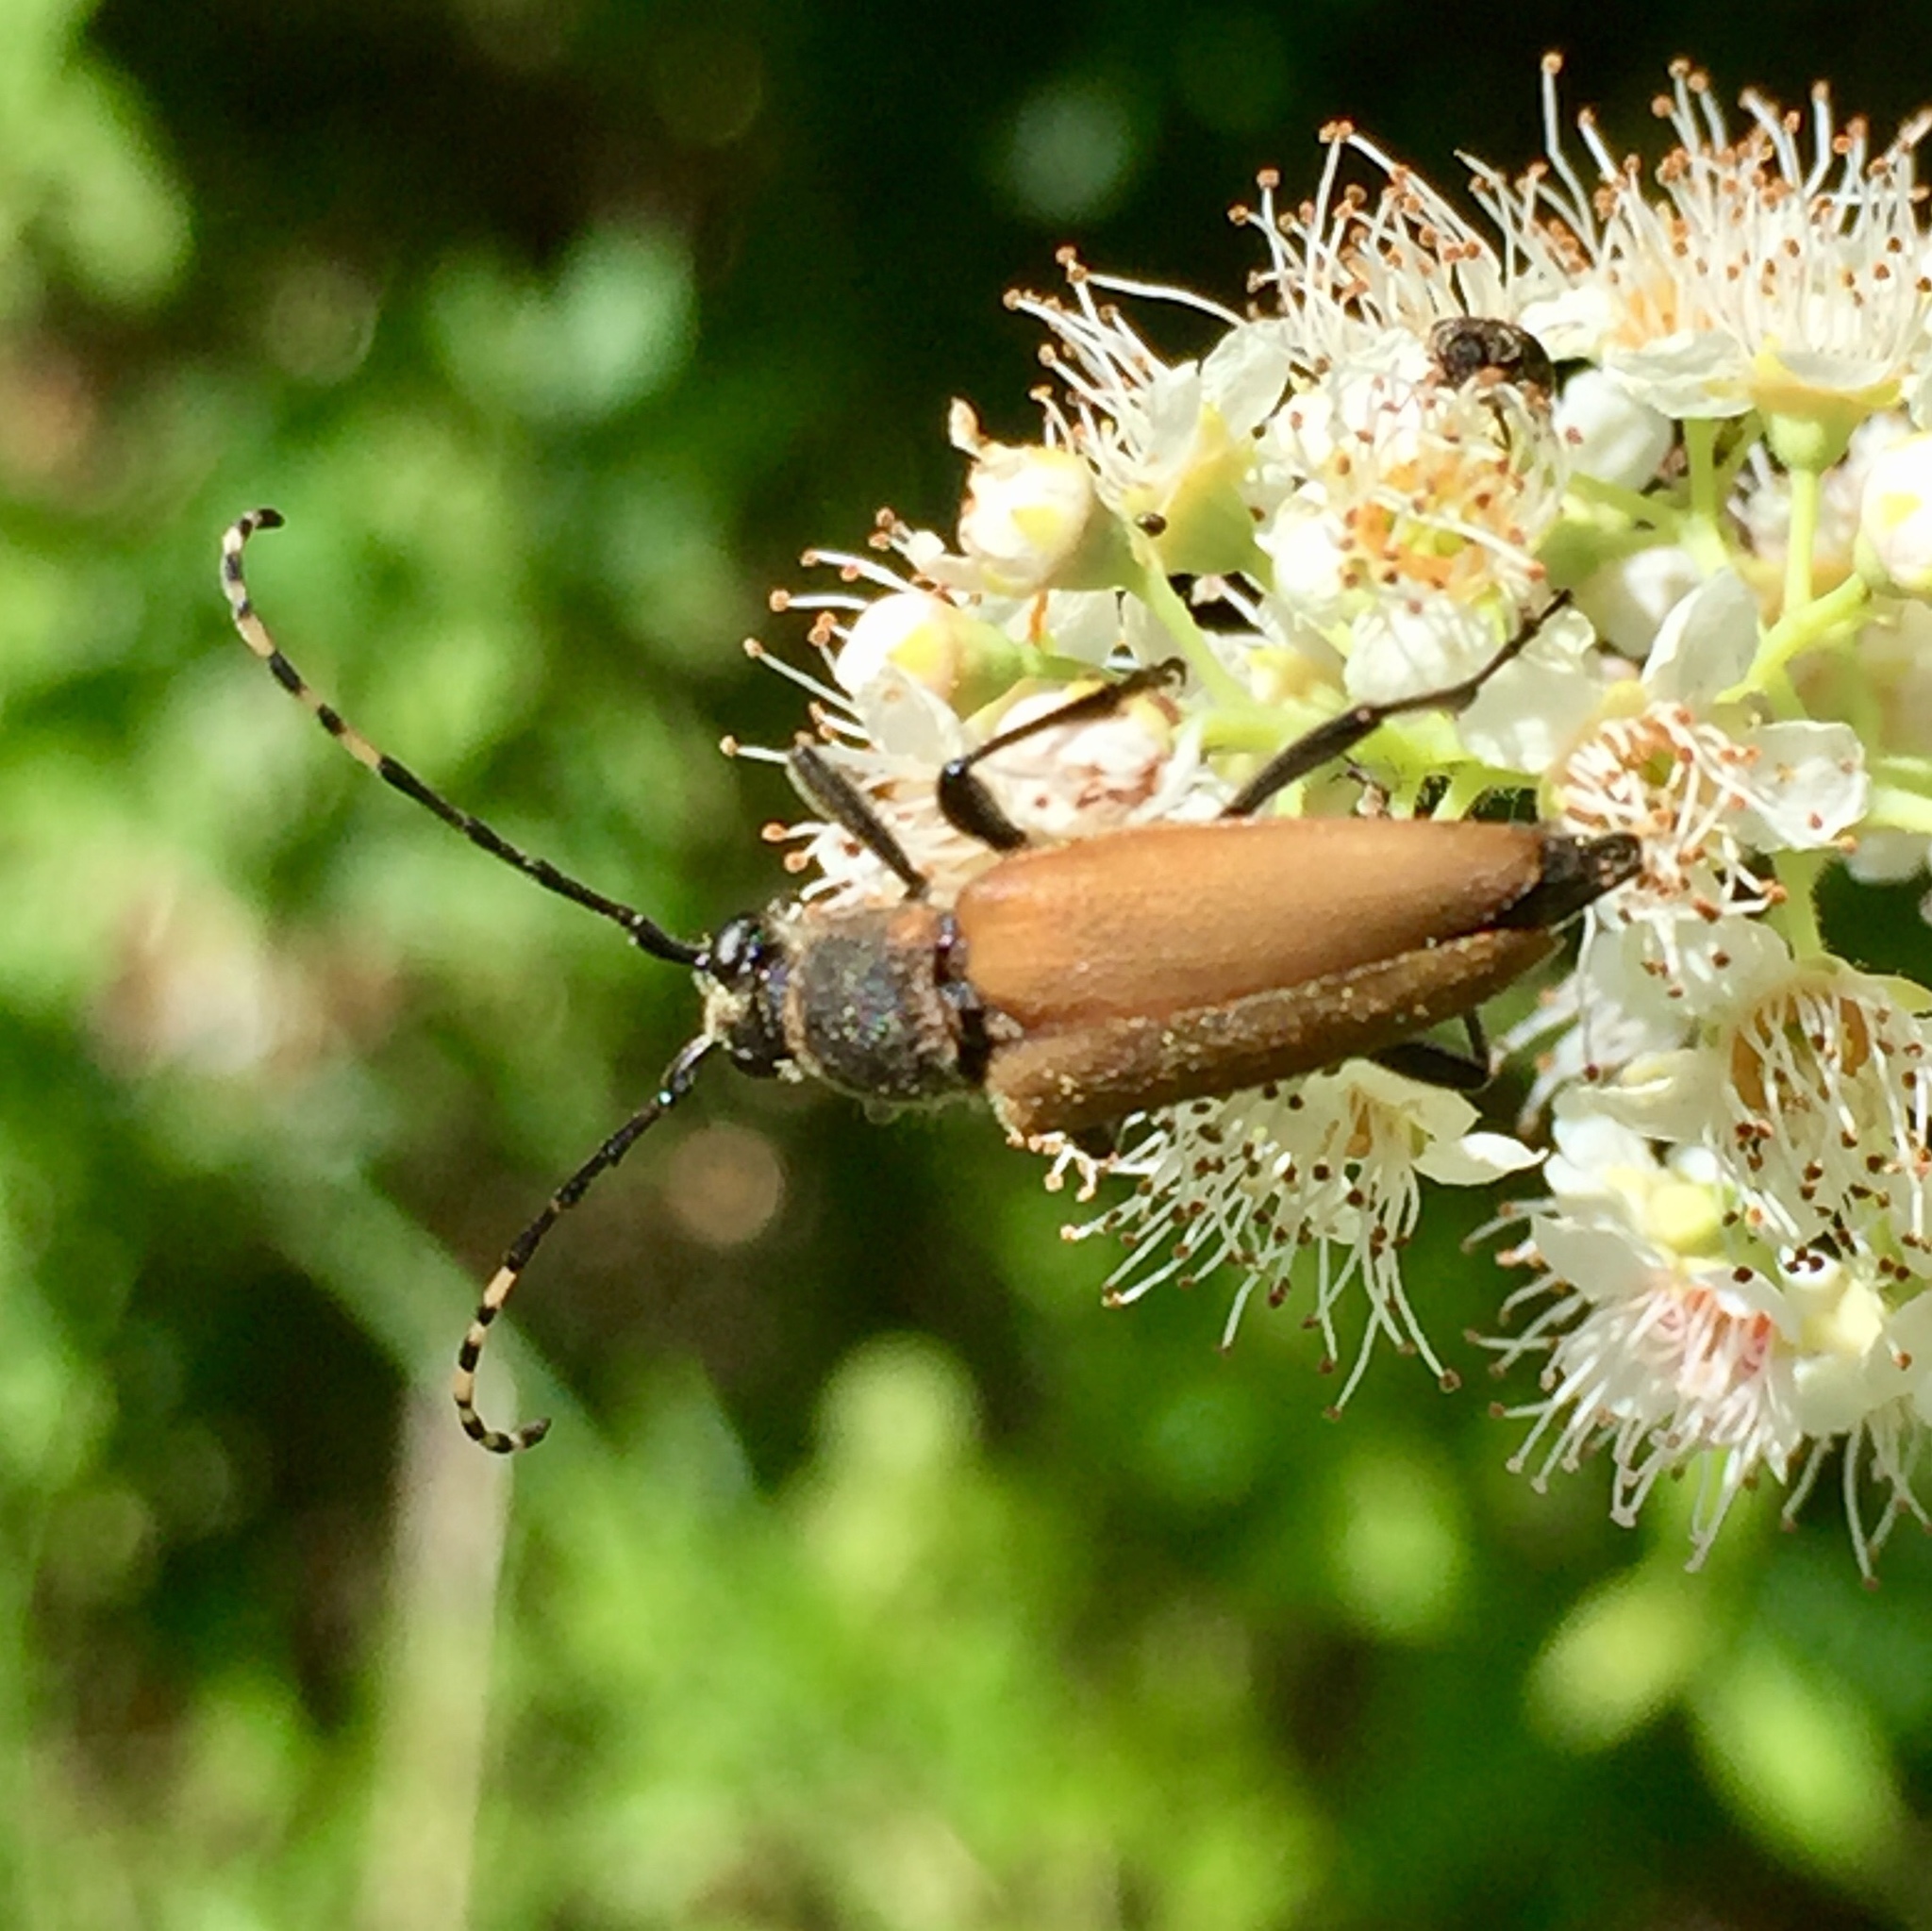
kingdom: Animalia
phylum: Arthropoda
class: Insecta
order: Coleoptera
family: Cerambycidae
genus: Brachyleptura
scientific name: Brachyleptura rubrica
